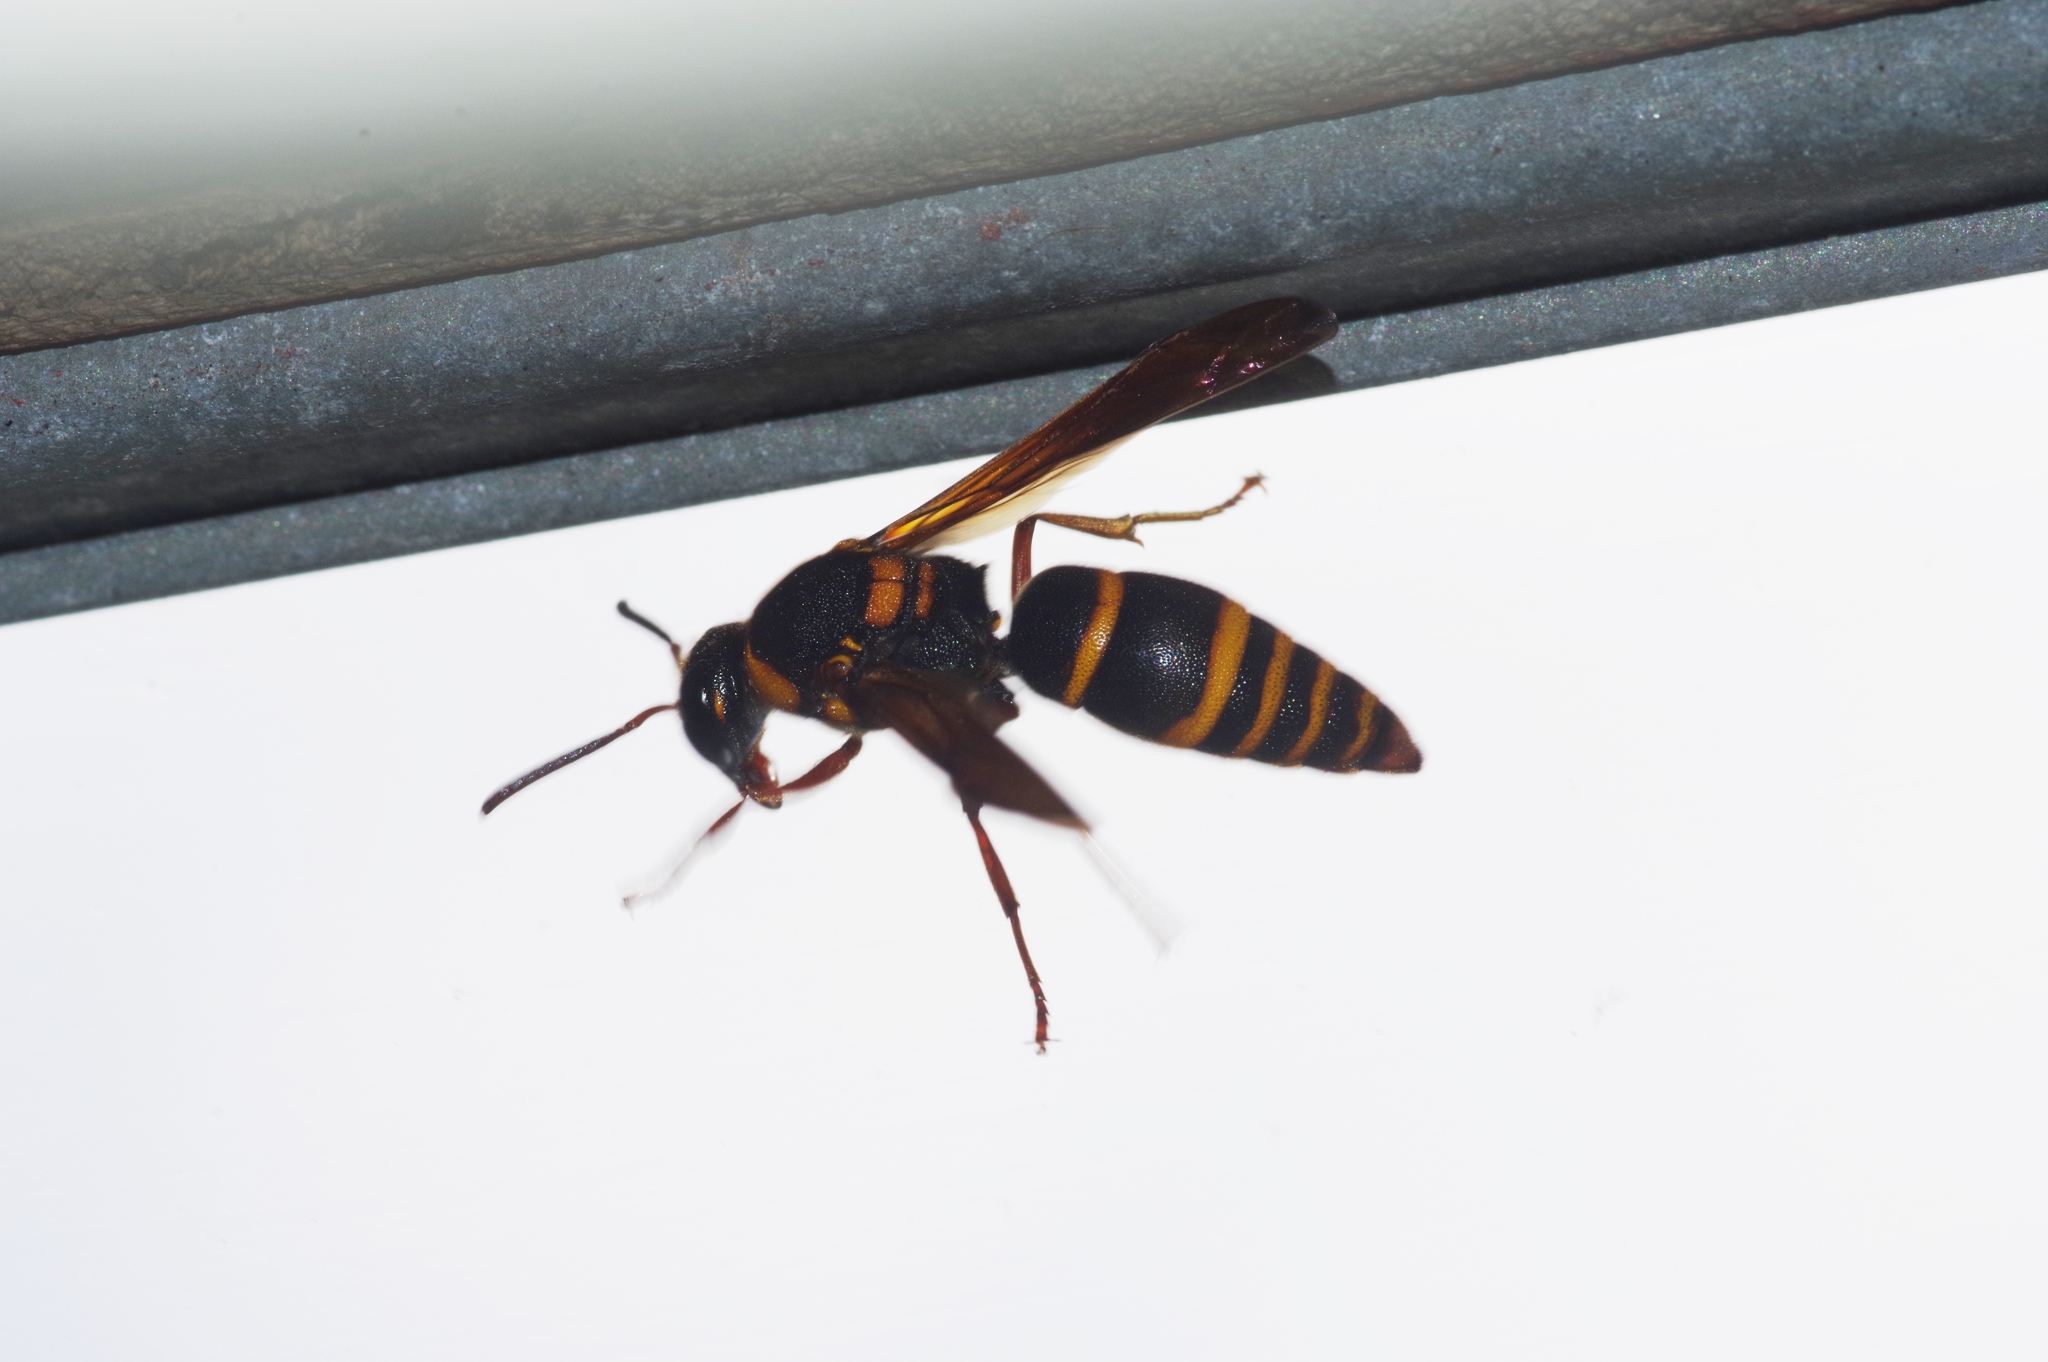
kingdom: Animalia
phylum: Arthropoda
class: Insecta
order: Hymenoptera
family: Eumenidae
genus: Anterhynchium
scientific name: Anterhynchium flavomarginatum
